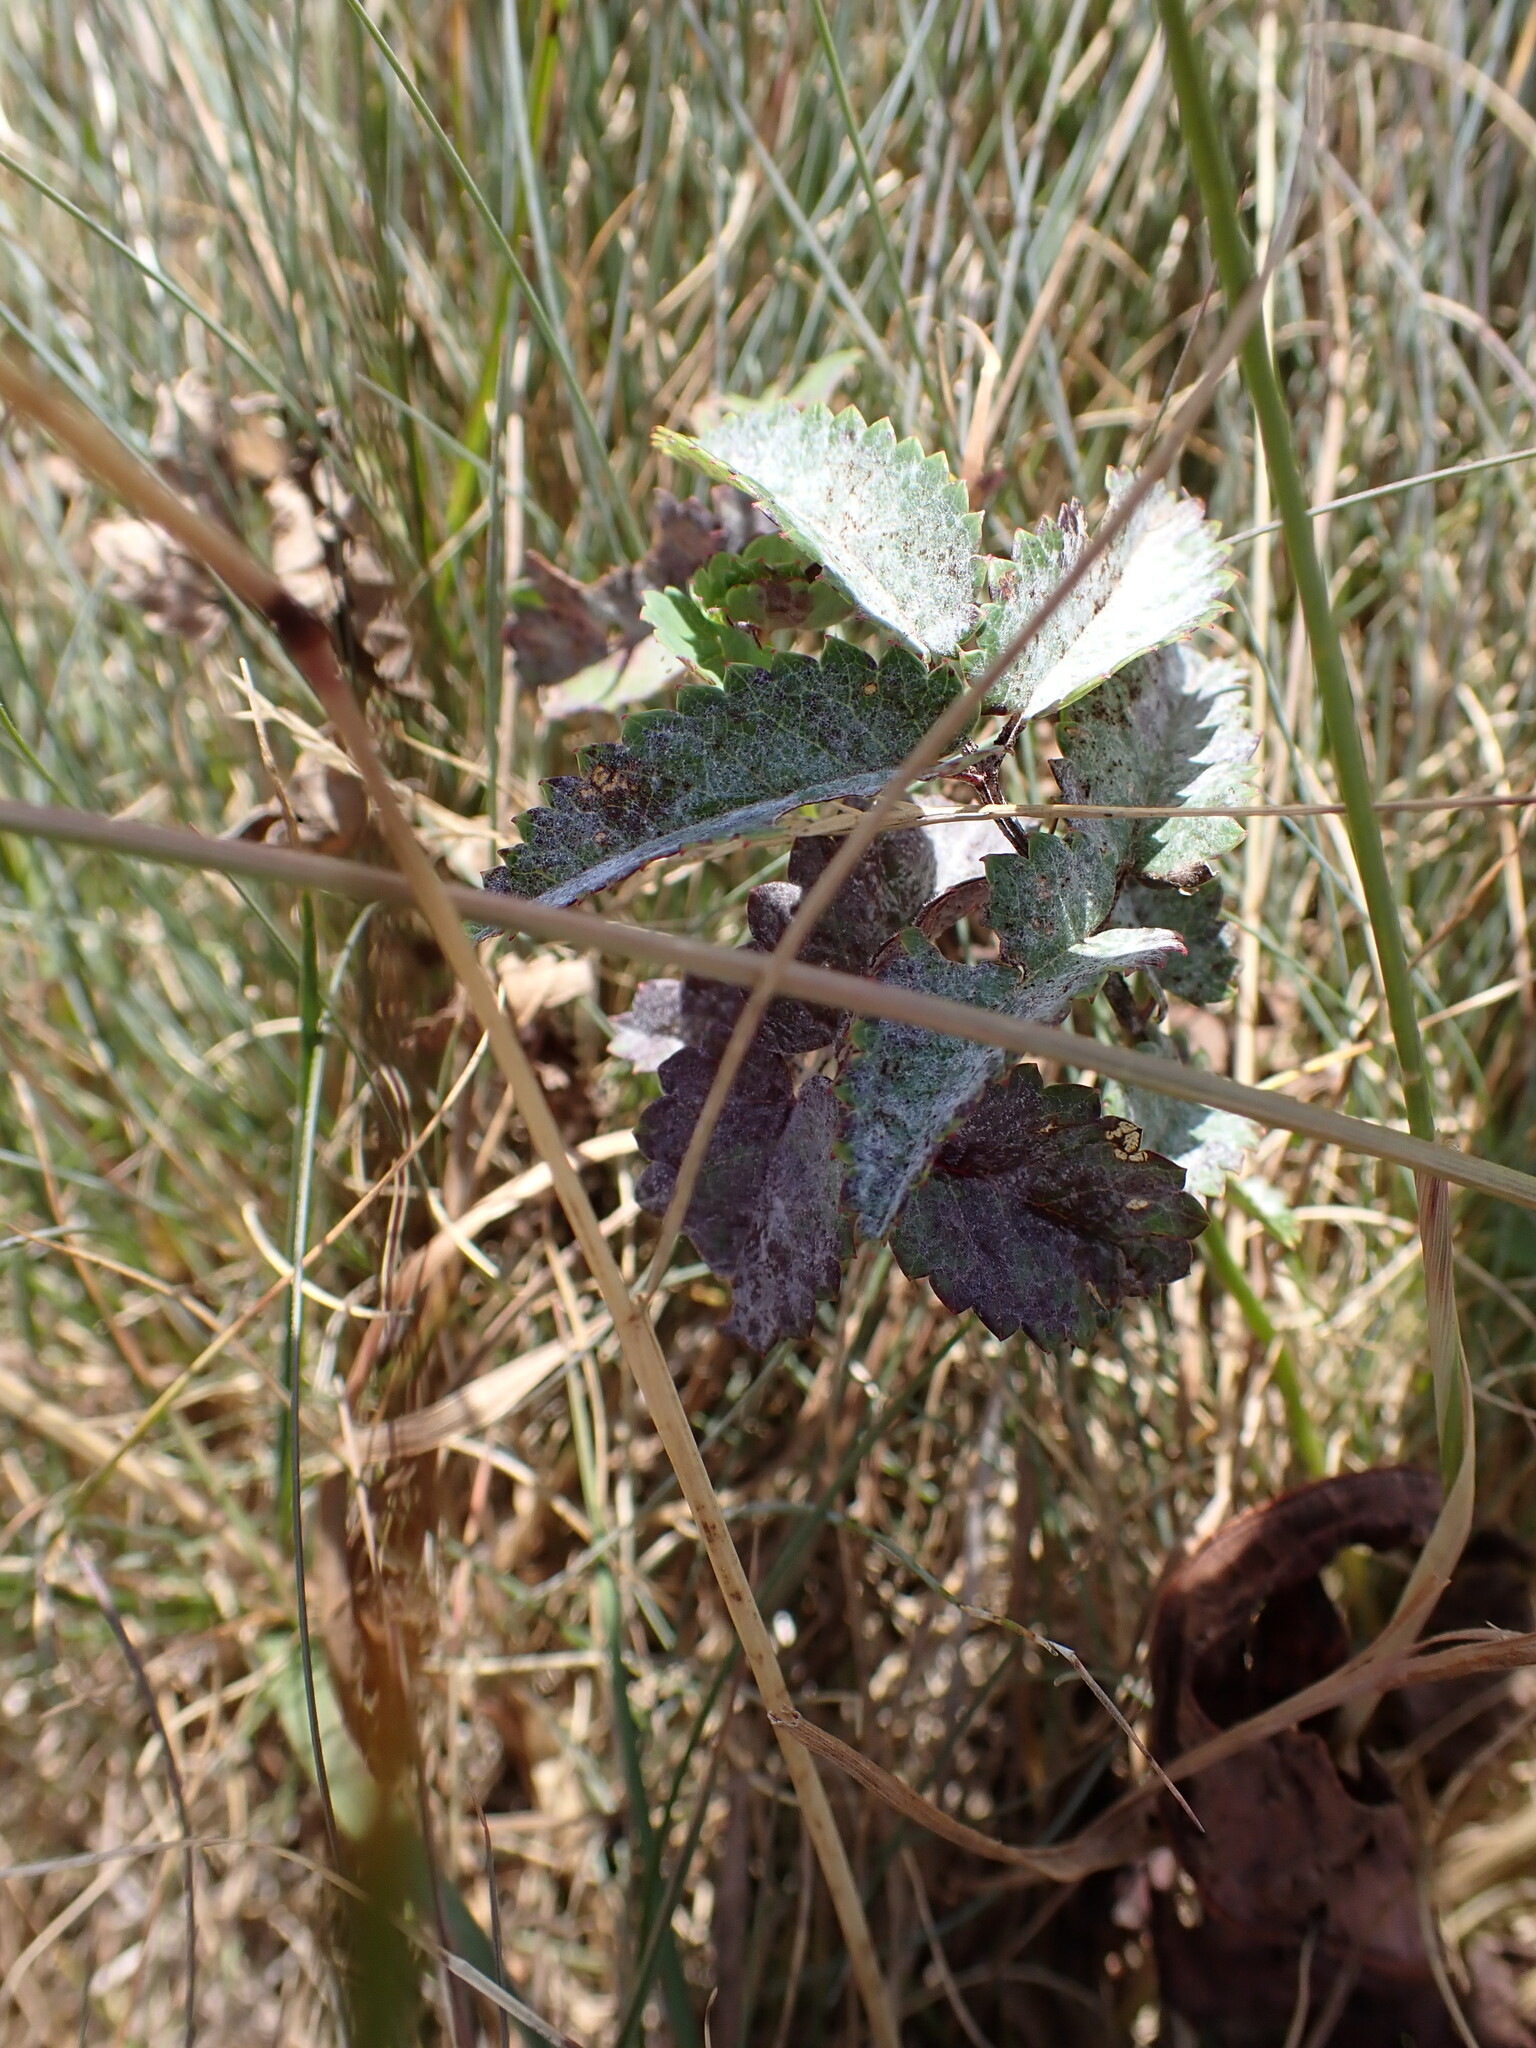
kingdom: Fungi
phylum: Ascomycota
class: Leotiomycetes
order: Helotiales
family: Erysiphaceae
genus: Podosphaera
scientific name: Podosphaera ferruginea
